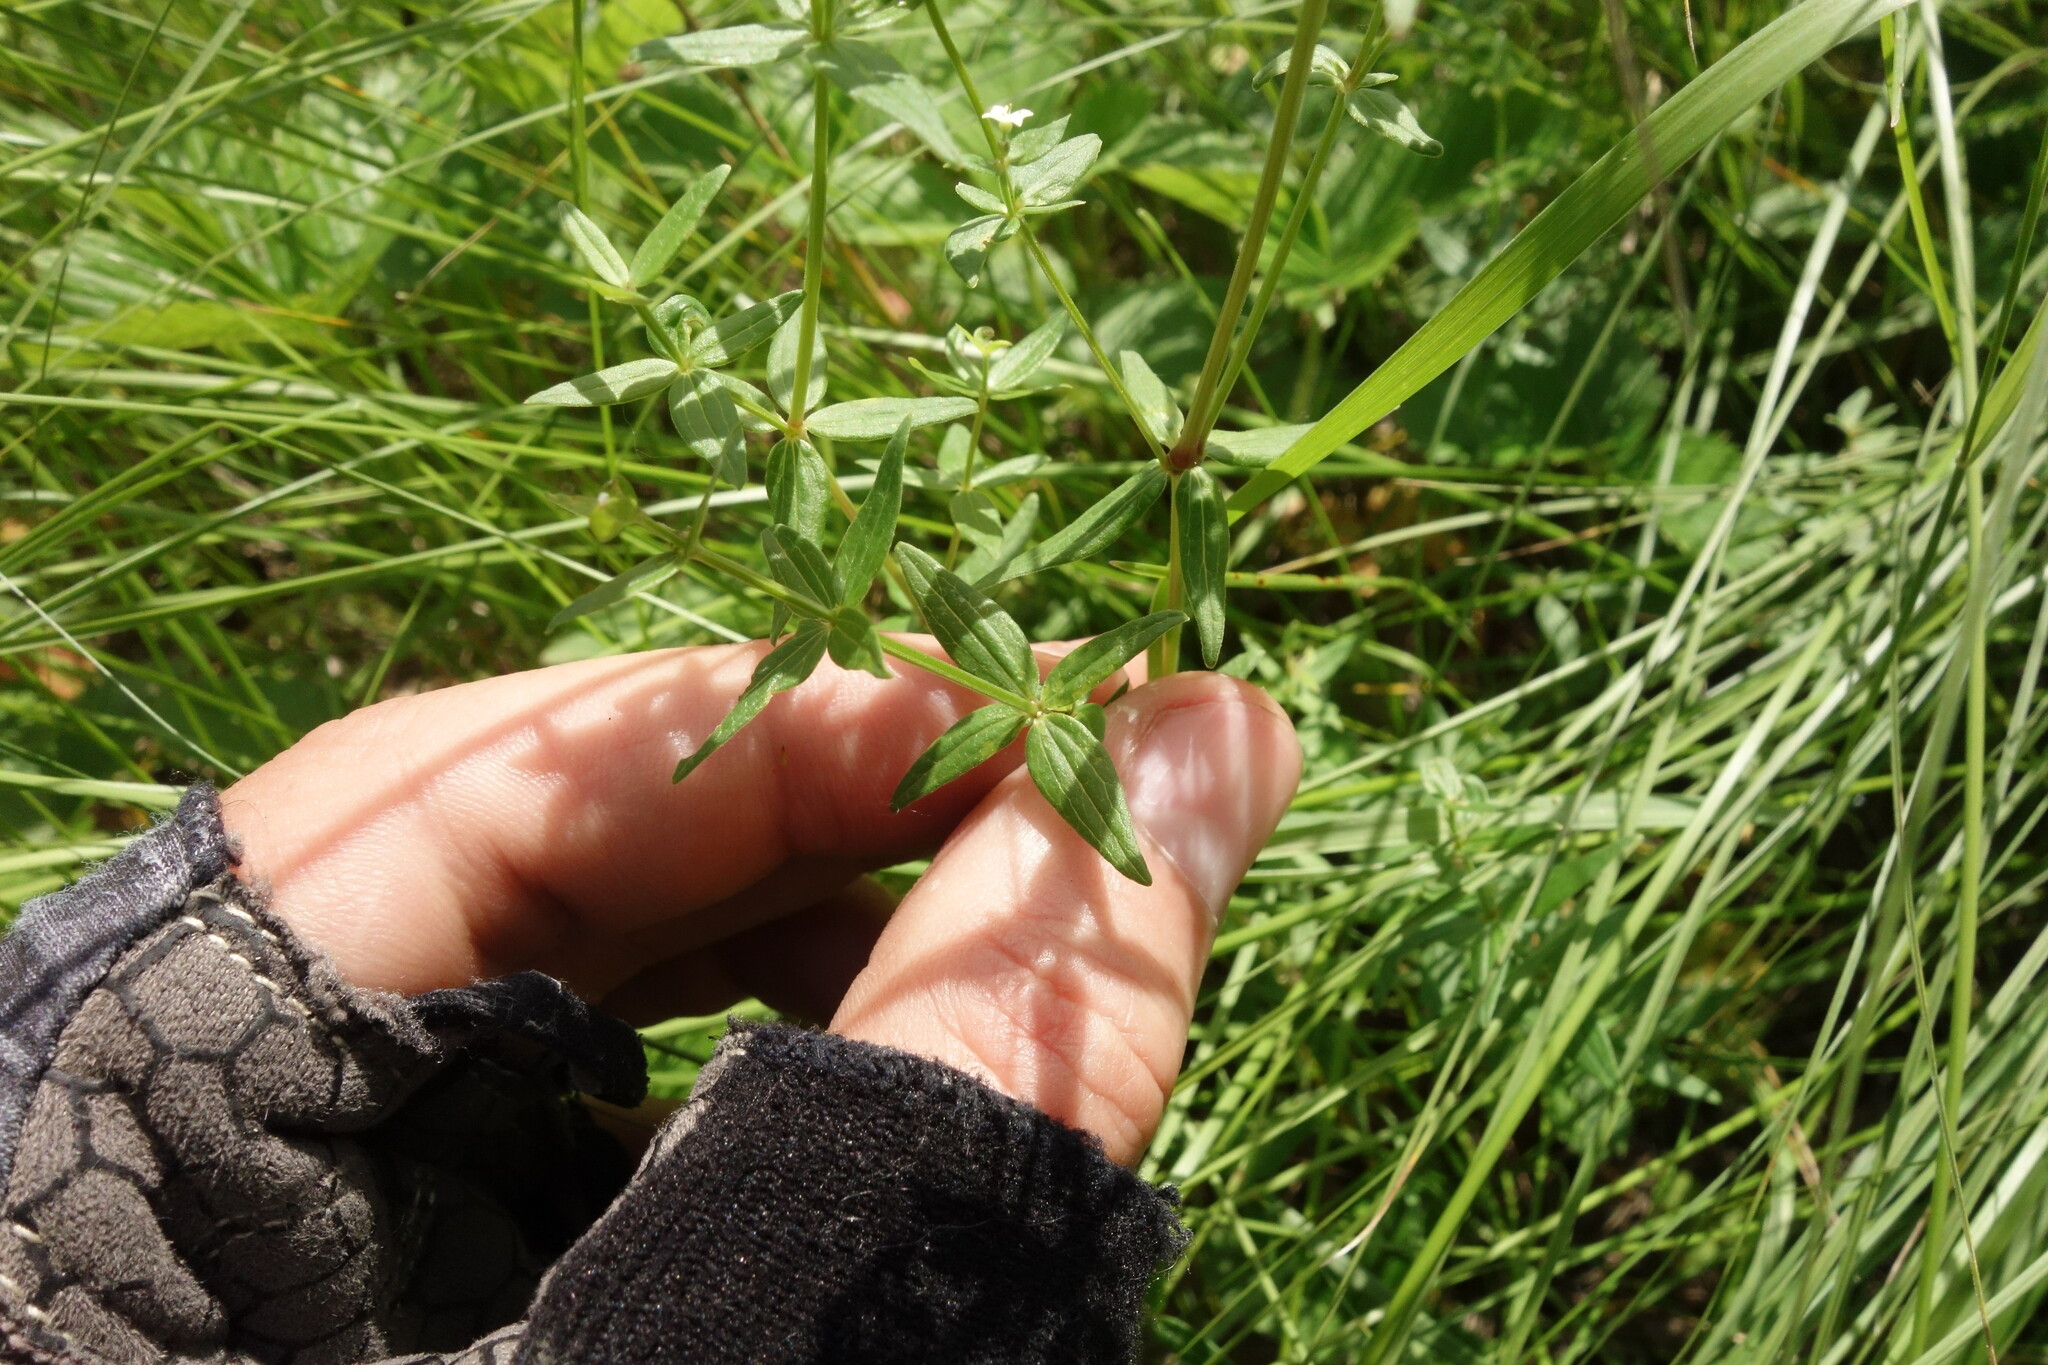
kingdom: Plantae
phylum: Tracheophyta
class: Magnoliopsida
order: Gentianales
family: Rubiaceae
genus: Galium
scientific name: Galium boreale
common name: Northern bedstraw
